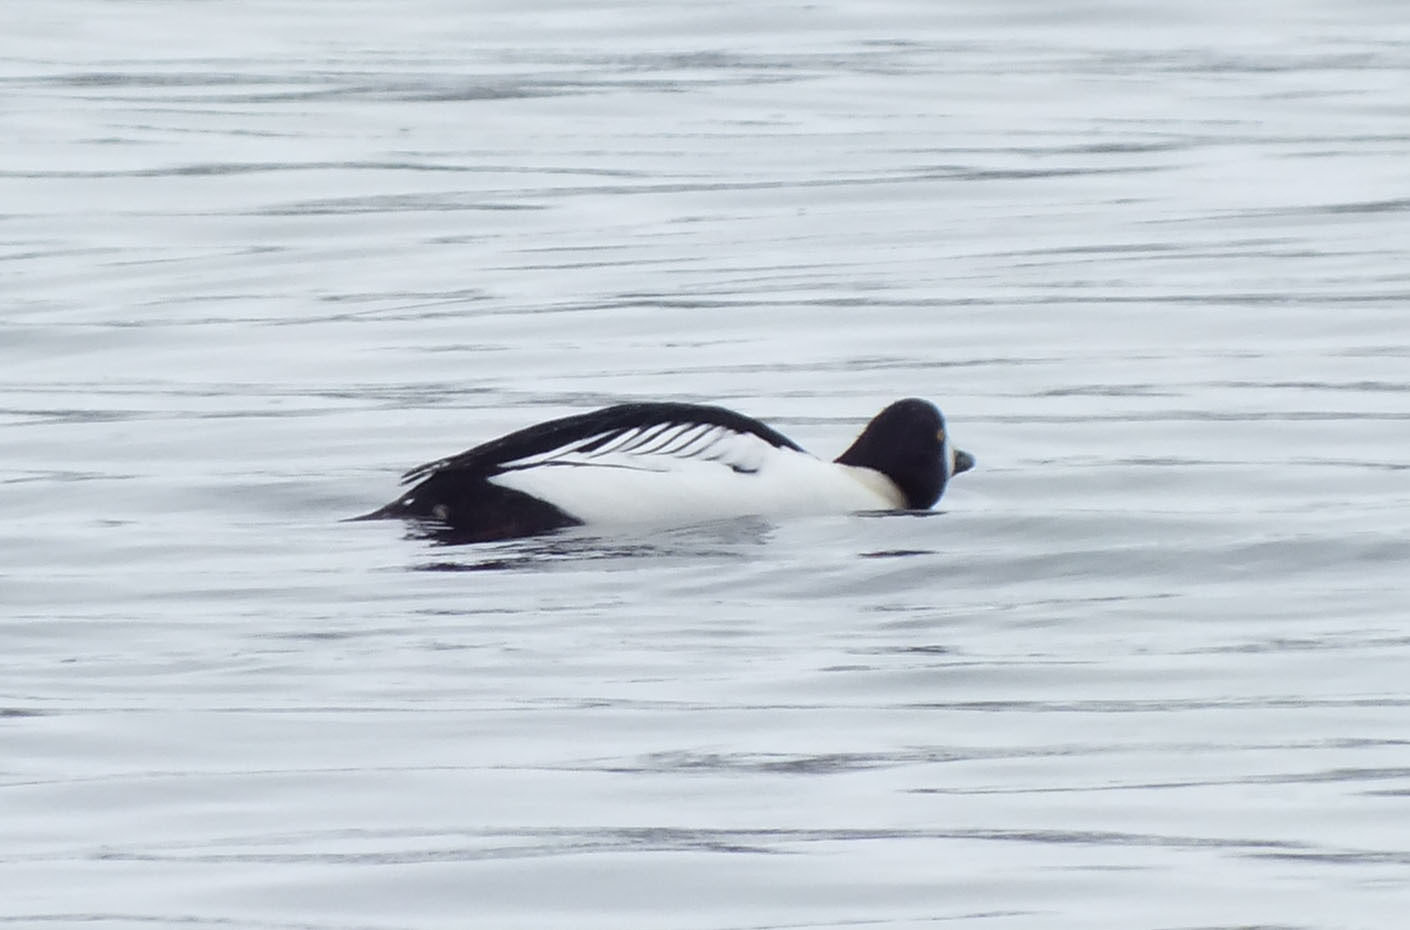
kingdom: Animalia
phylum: Chordata
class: Aves
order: Anseriformes
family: Anatidae
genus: Bucephala
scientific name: Bucephala clangula
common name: Common goldeneye
